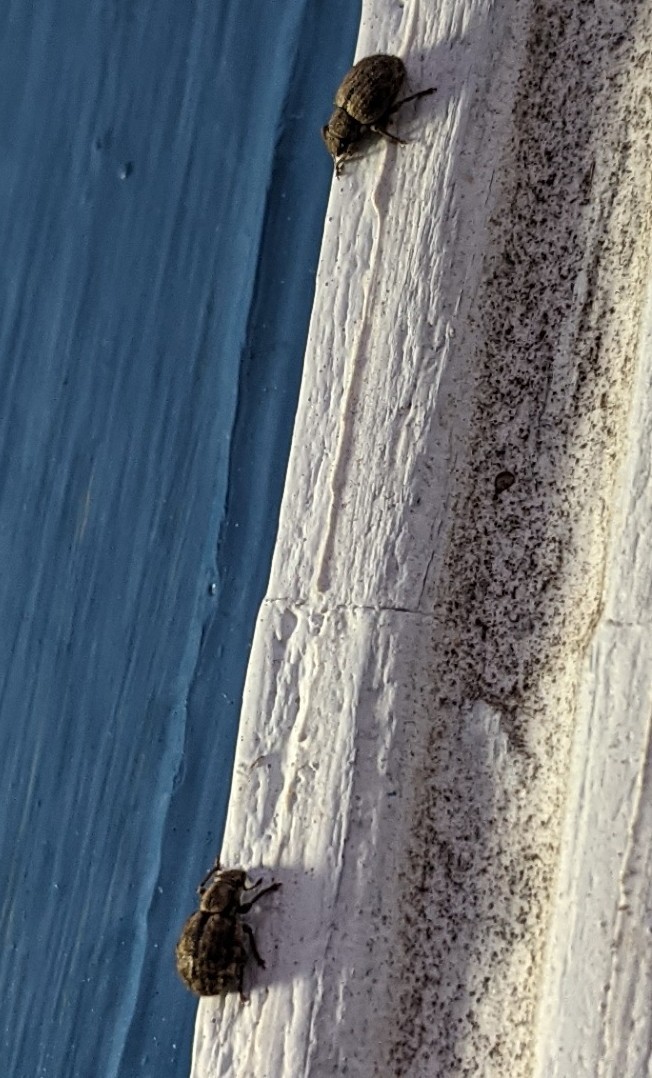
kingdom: Animalia
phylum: Arthropoda
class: Insecta
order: Coleoptera
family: Curculionidae
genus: Strophosoma
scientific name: Strophosoma melanogrammum
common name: Weevil
